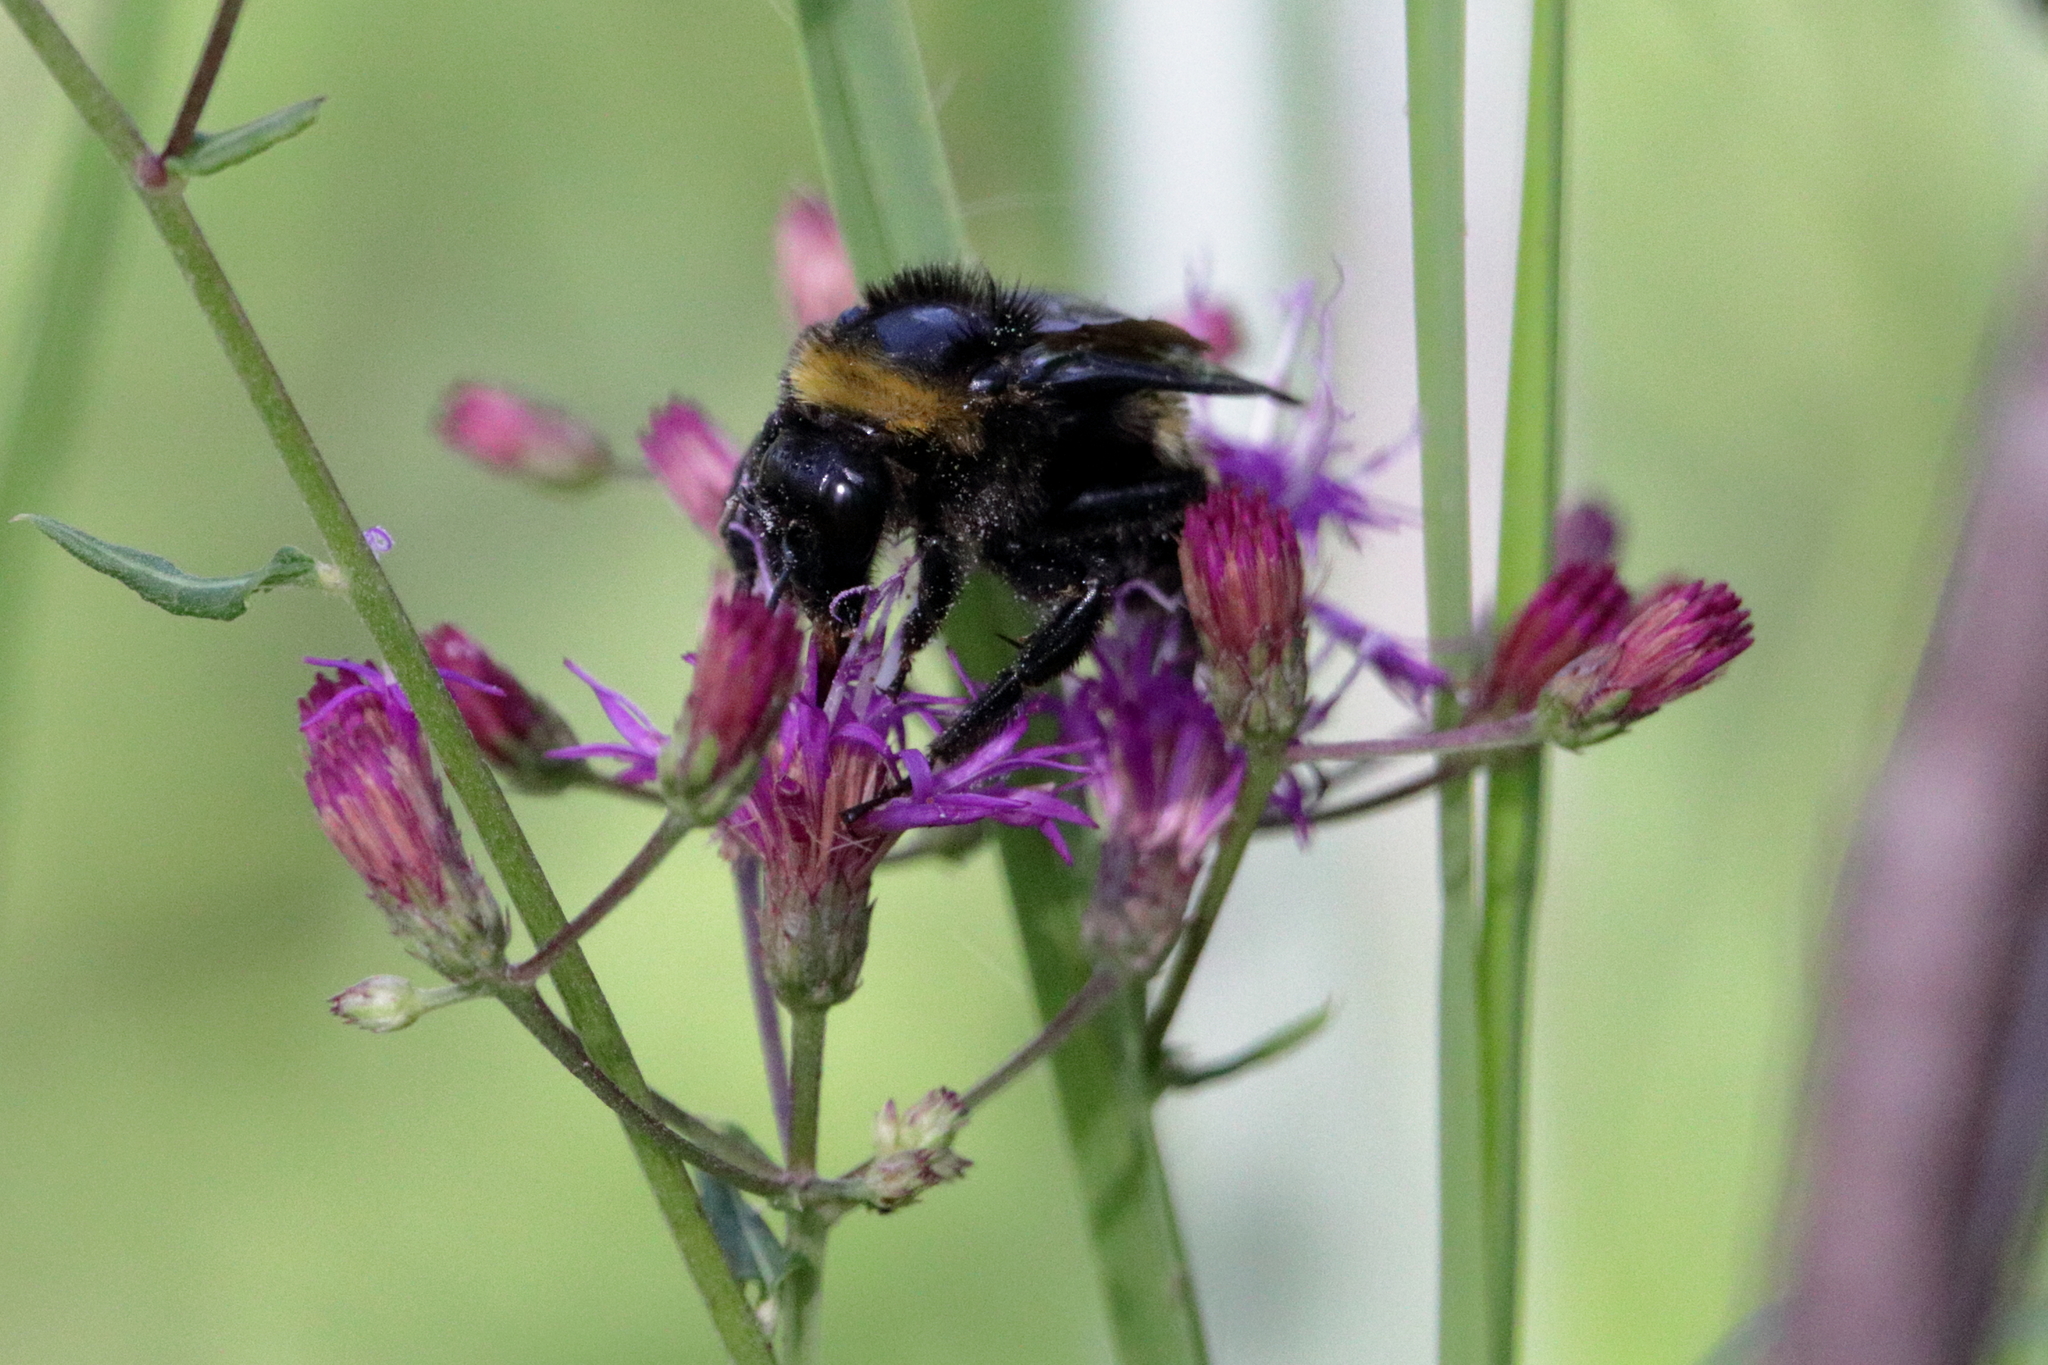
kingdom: Animalia
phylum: Arthropoda
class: Insecta
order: Hymenoptera
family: Apidae
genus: Bombus
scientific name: Bombus pensylvanicus
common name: Bumble bee
